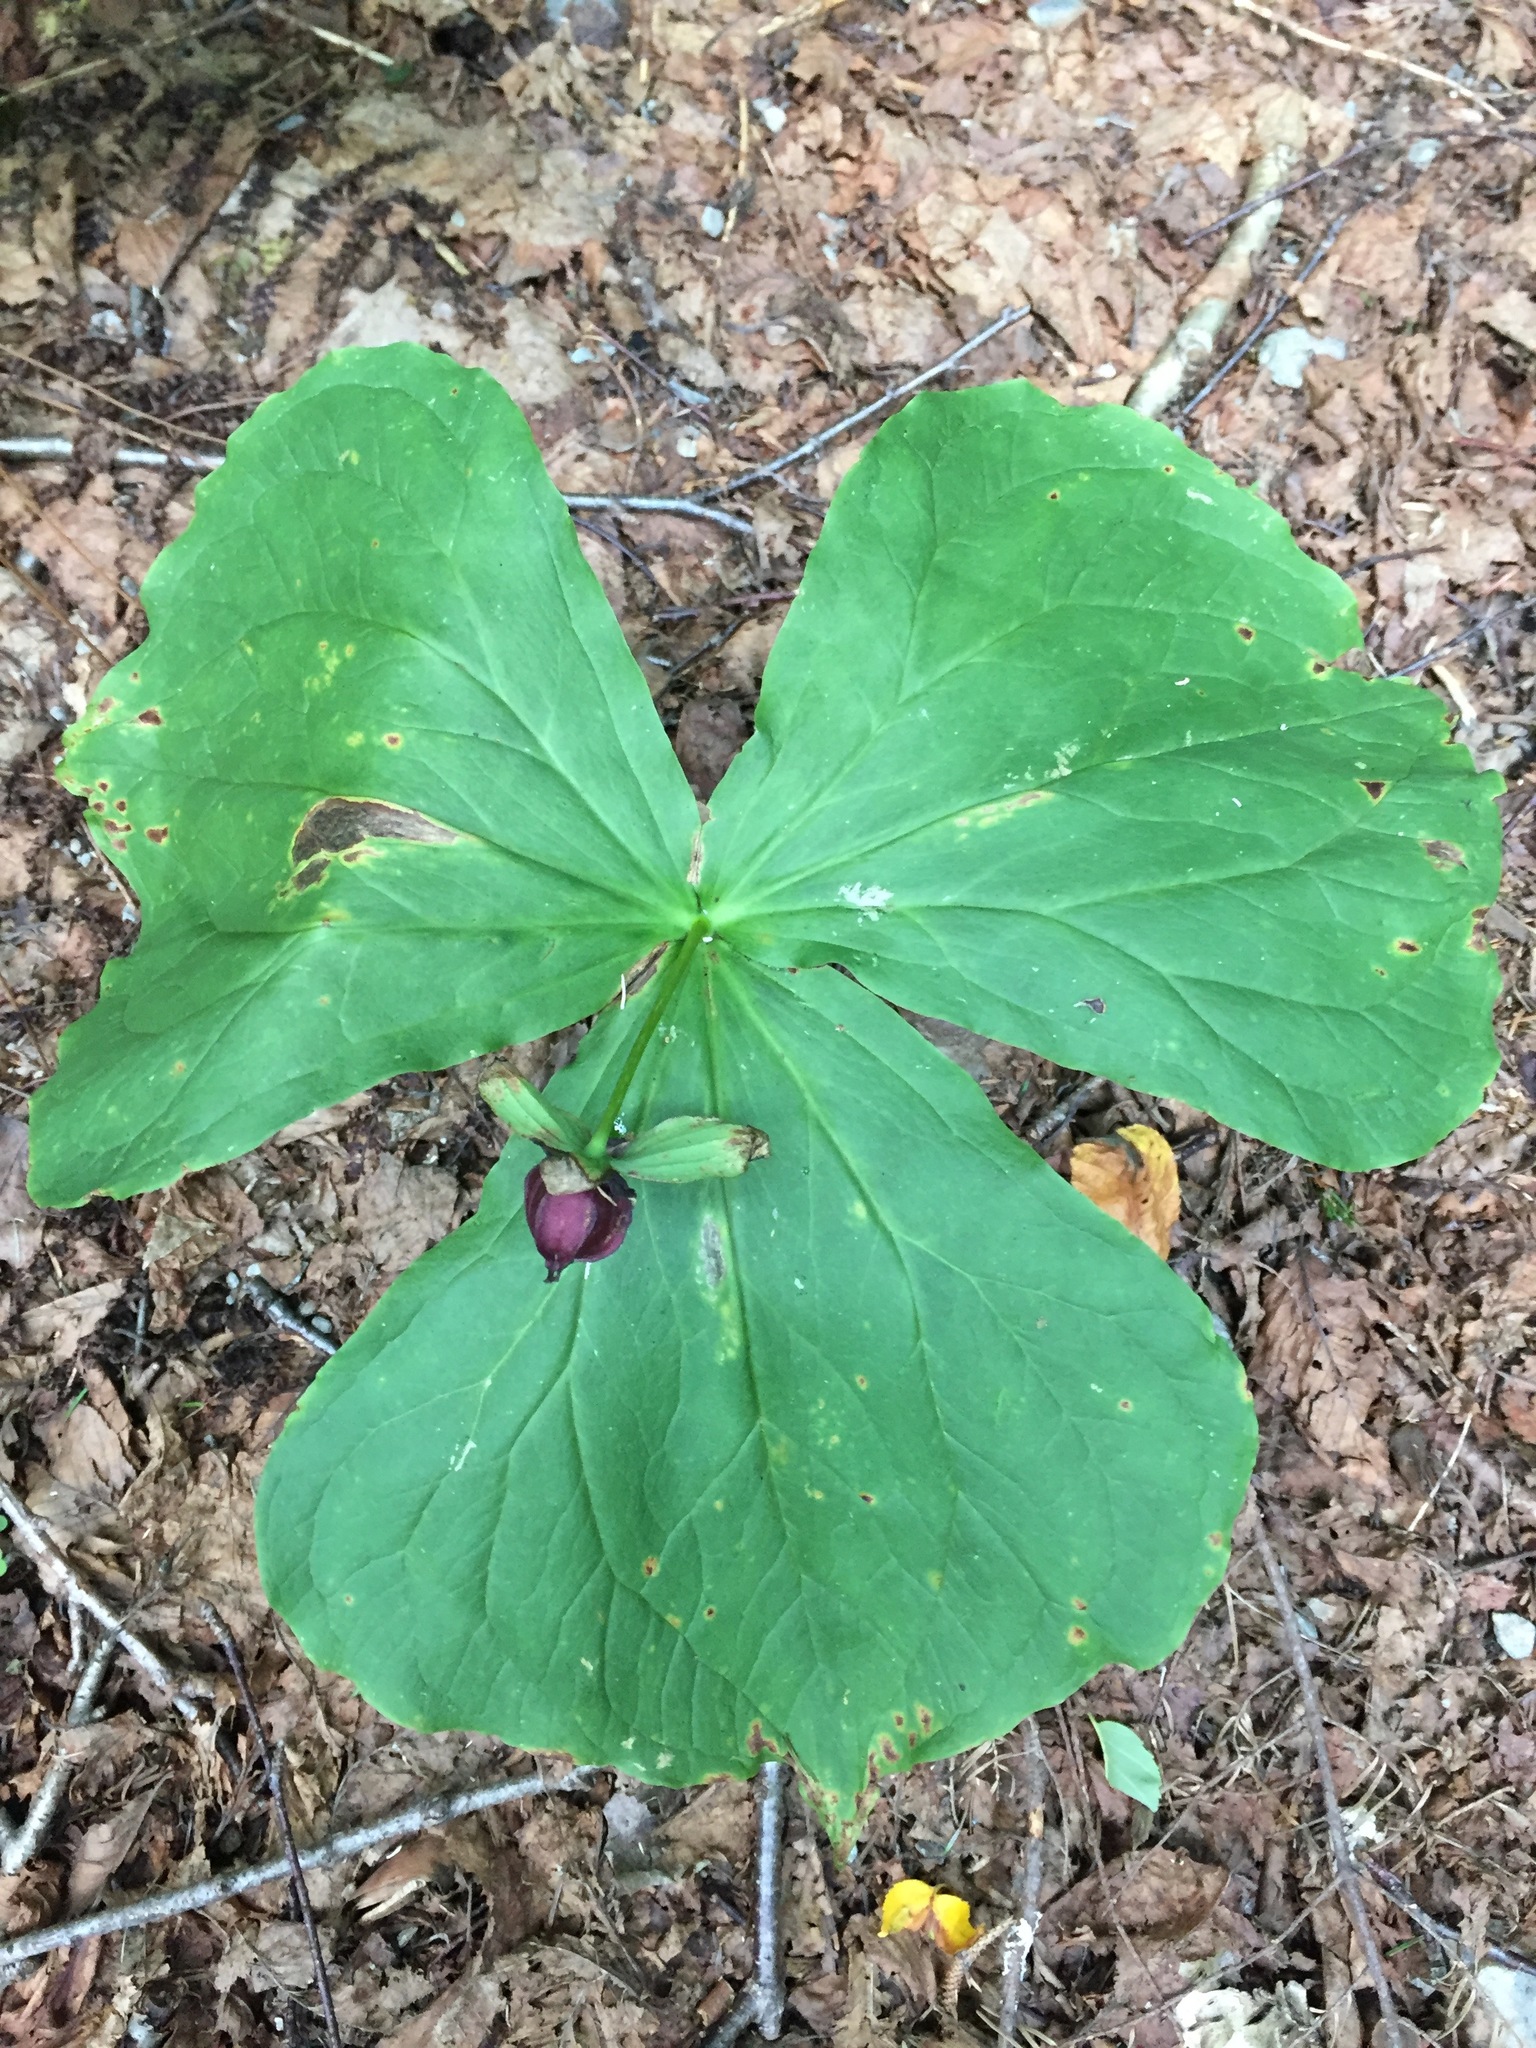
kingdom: Plantae
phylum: Tracheophyta
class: Liliopsida
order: Liliales
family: Melanthiaceae
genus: Trillium
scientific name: Trillium erectum
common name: Purple trillium
